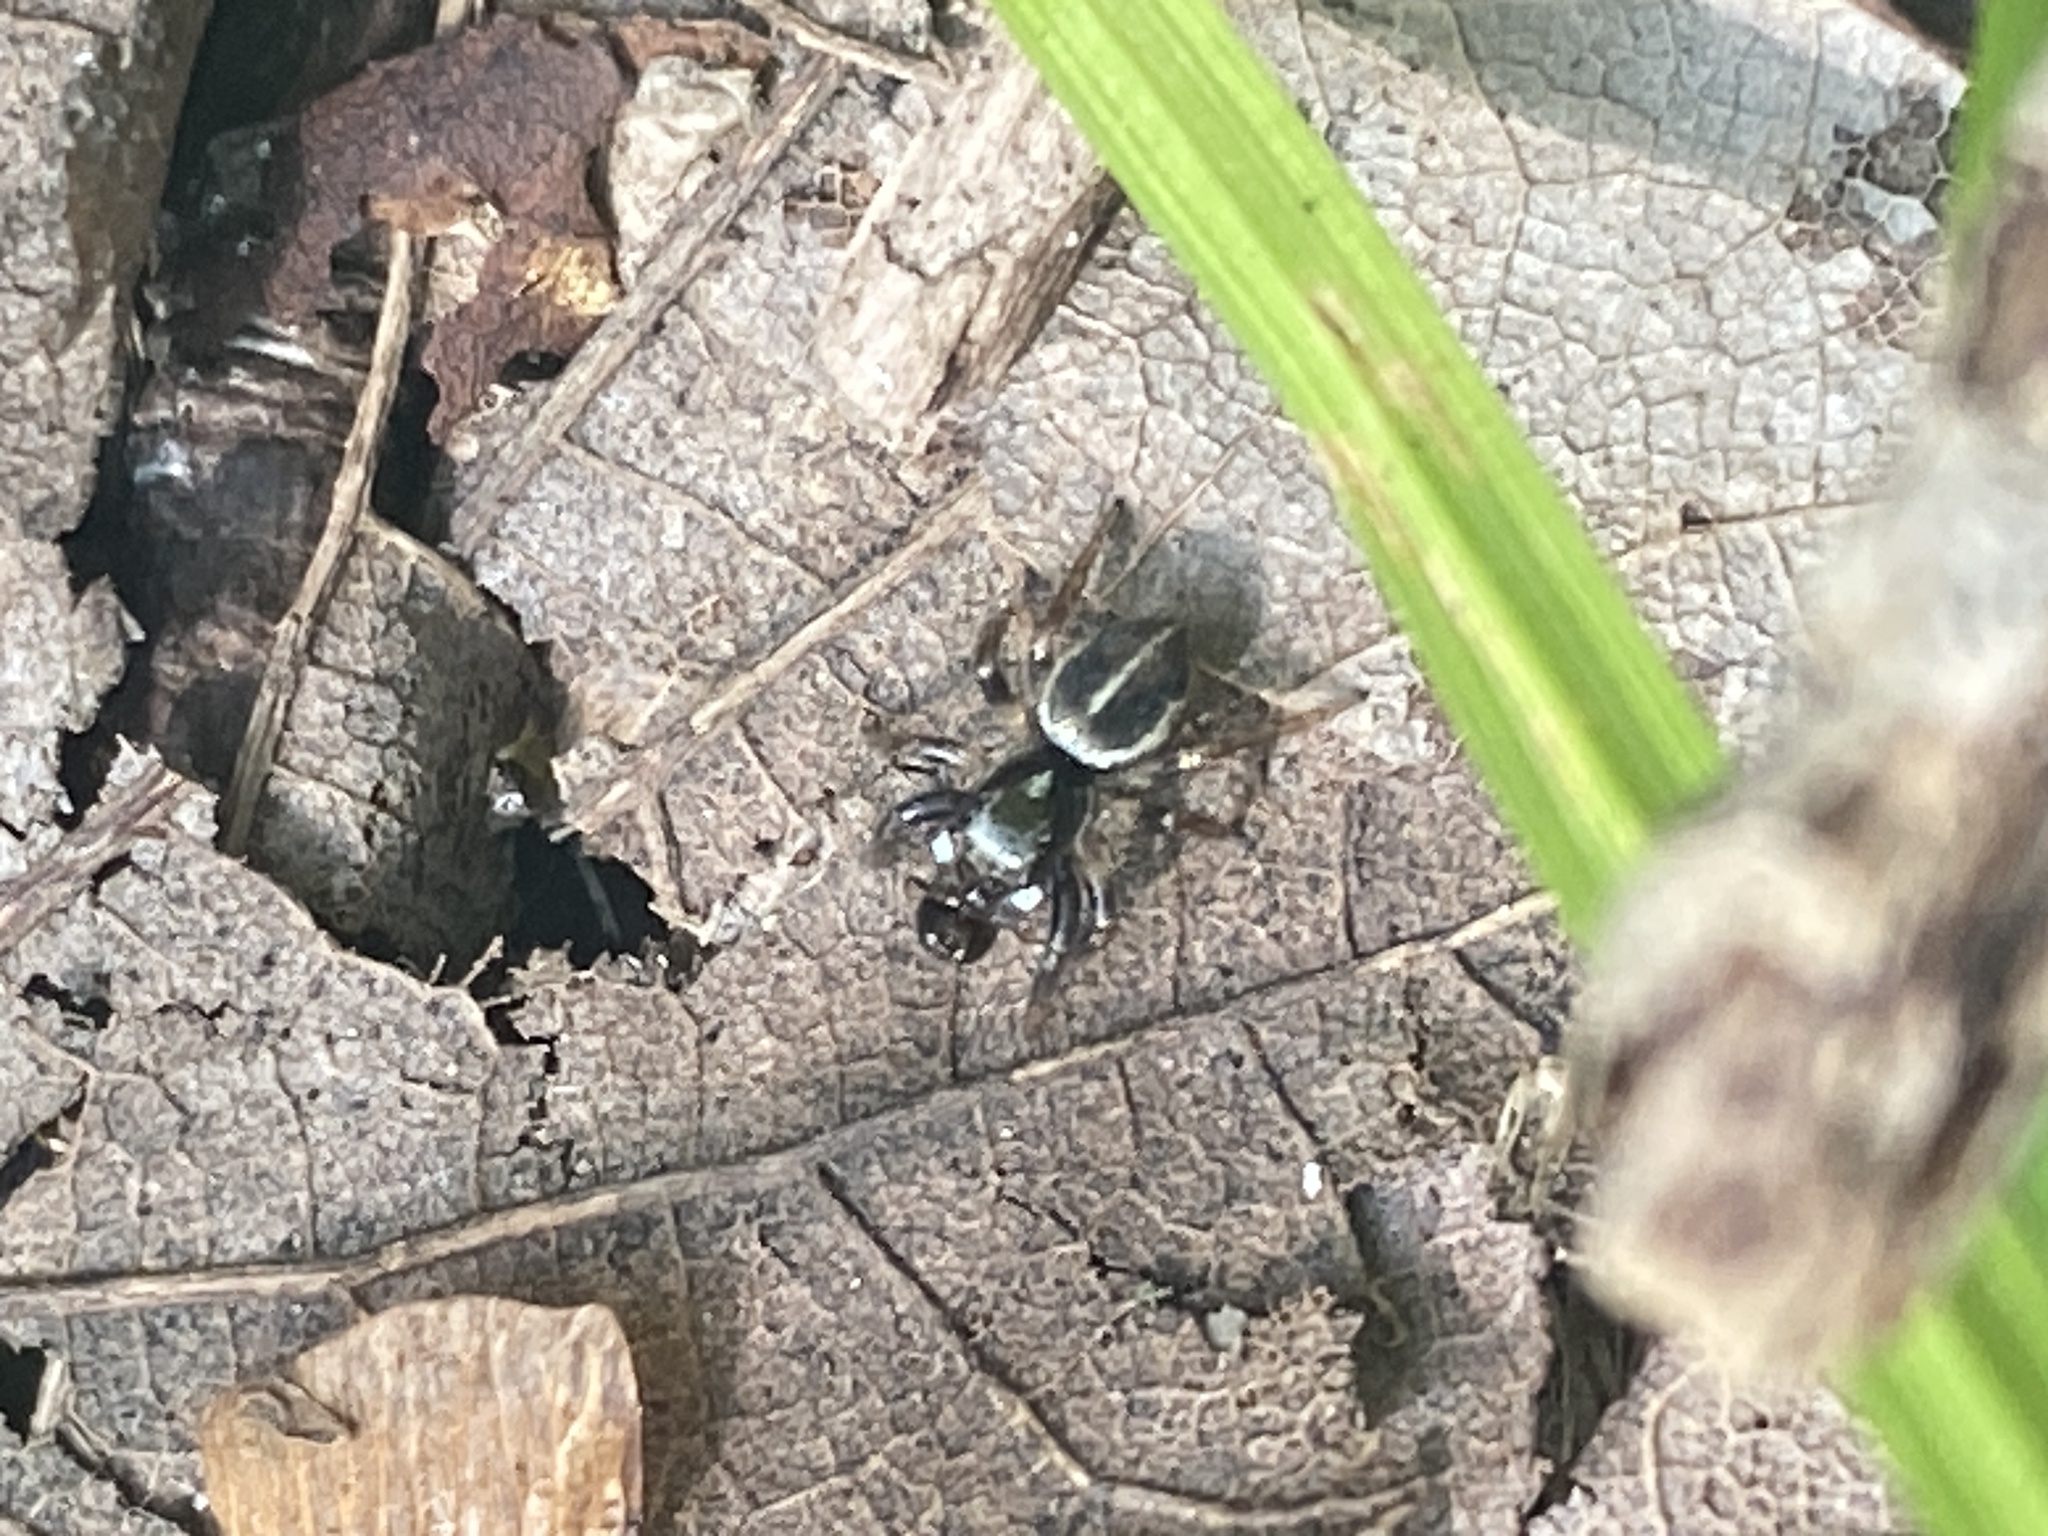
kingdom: Animalia
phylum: Arthropoda
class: Arachnida
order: Araneae
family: Salticidae
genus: Anasaitis
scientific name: Anasaitis canosa
